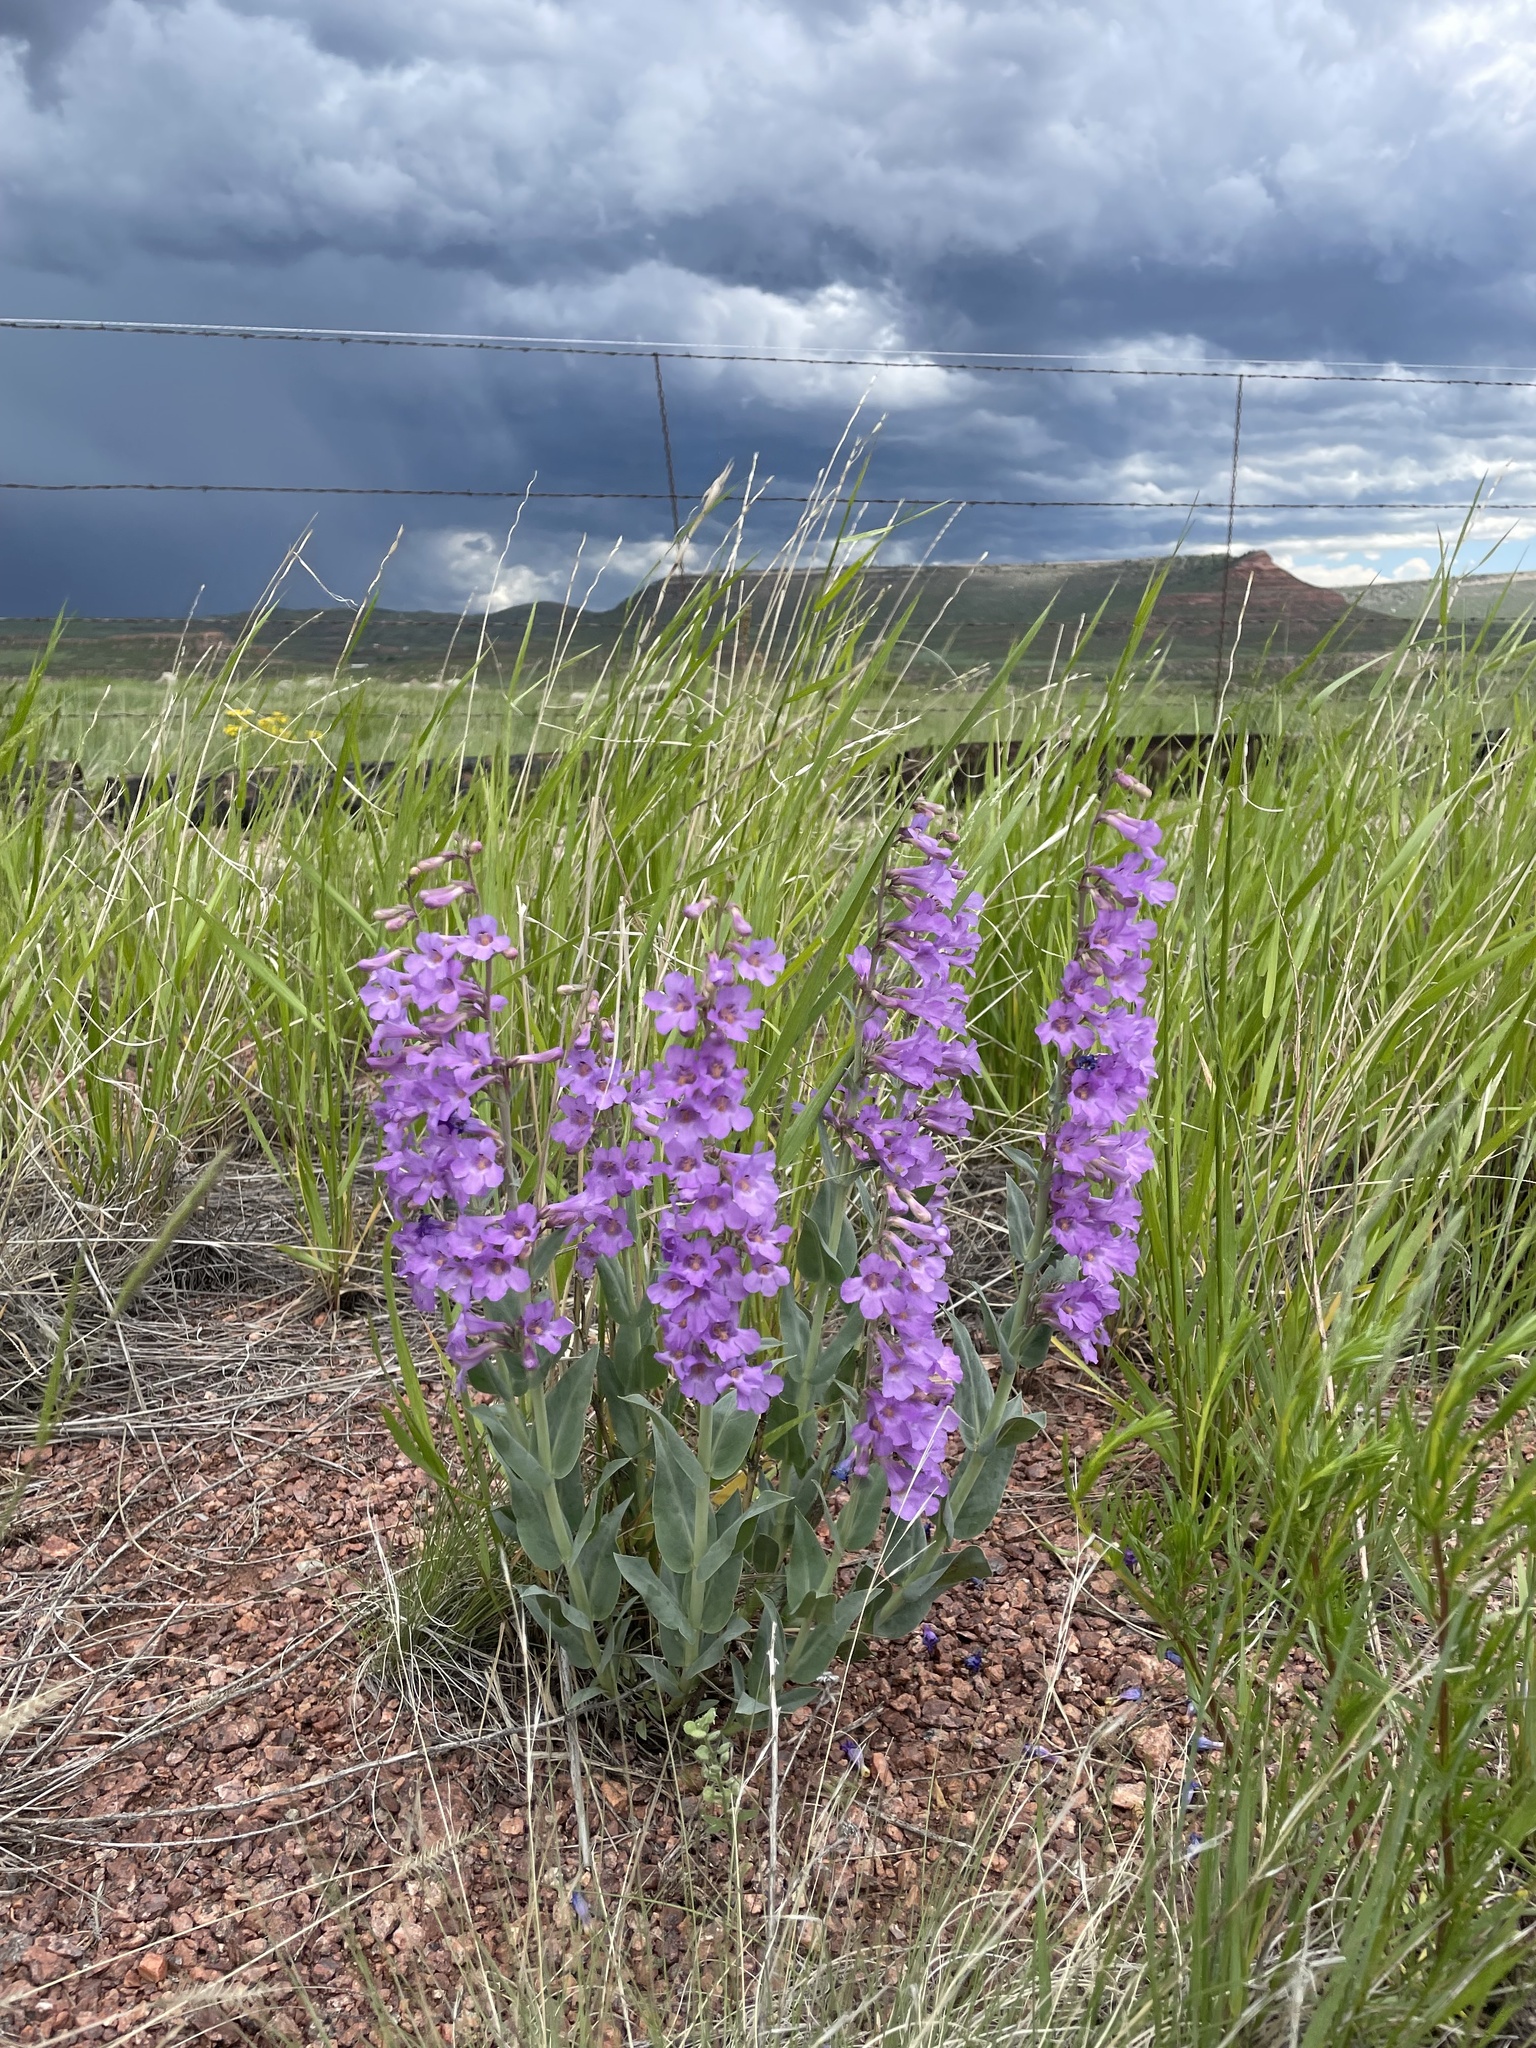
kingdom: Plantae
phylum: Tracheophyta
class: Magnoliopsida
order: Lamiales
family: Plantaginaceae
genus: Penstemon
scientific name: Penstemon secundiflorus
